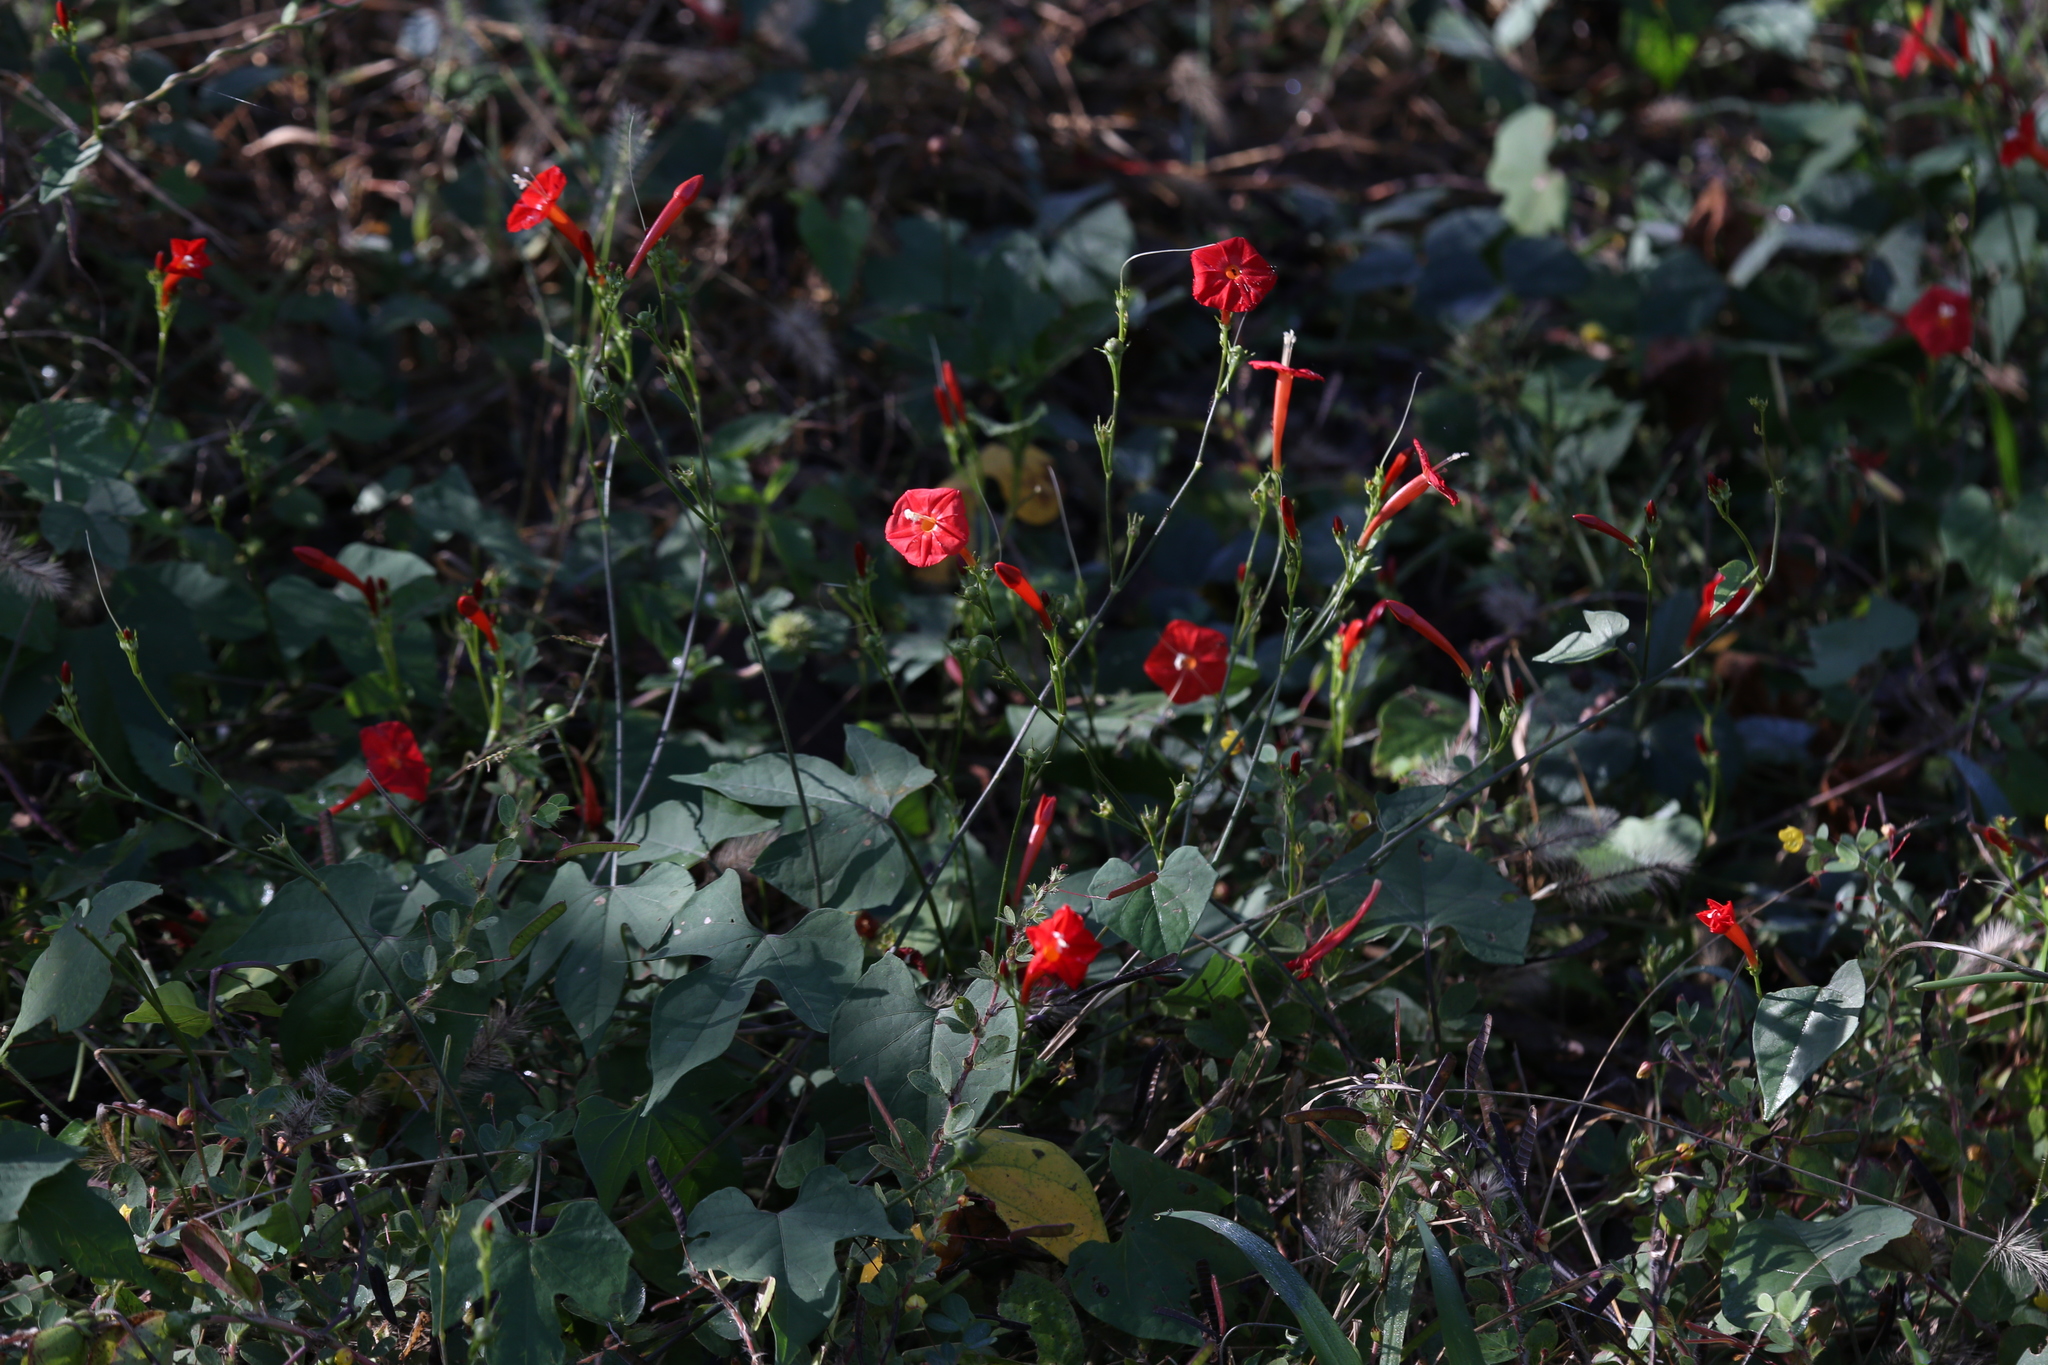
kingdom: Plantae
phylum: Tracheophyta
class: Magnoliopsida
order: Solanales
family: Convolvulaceae
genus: Ipomoea
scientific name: Ipomoea hederifolia
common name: Ivy-leaf morning-glory
